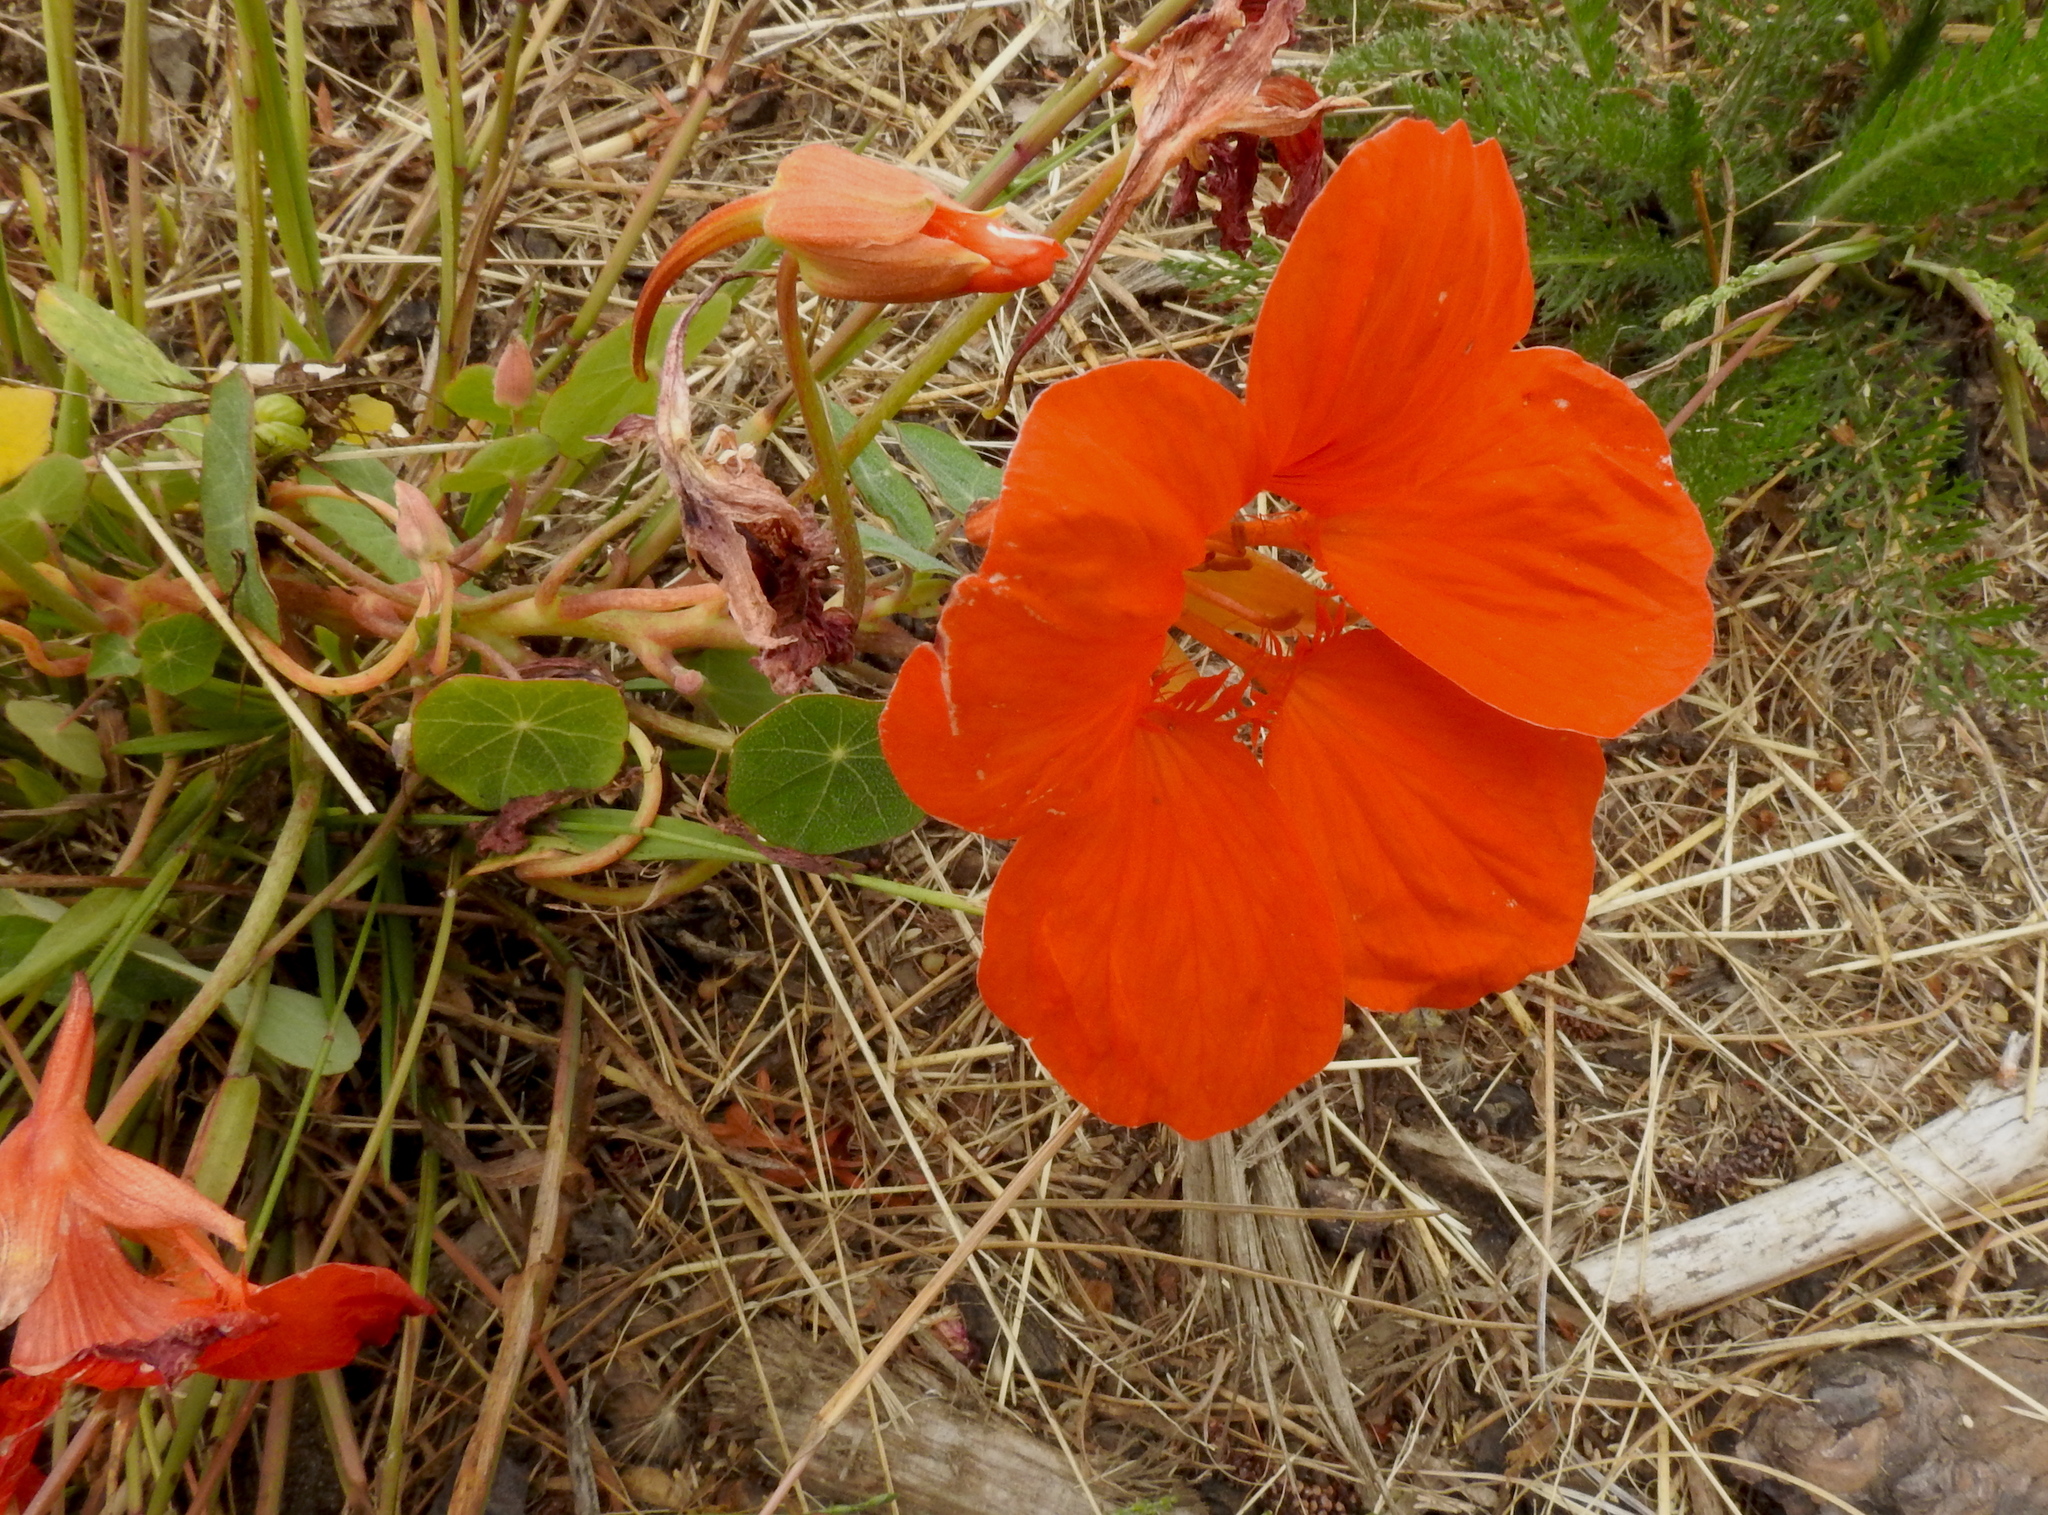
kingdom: Plantae
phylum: Tracheophyta
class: Magnoliopsida
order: Brassicales
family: Tropaeolaceae
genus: Tropaeolum
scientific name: Tropaeolum majus
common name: Nasturtium
